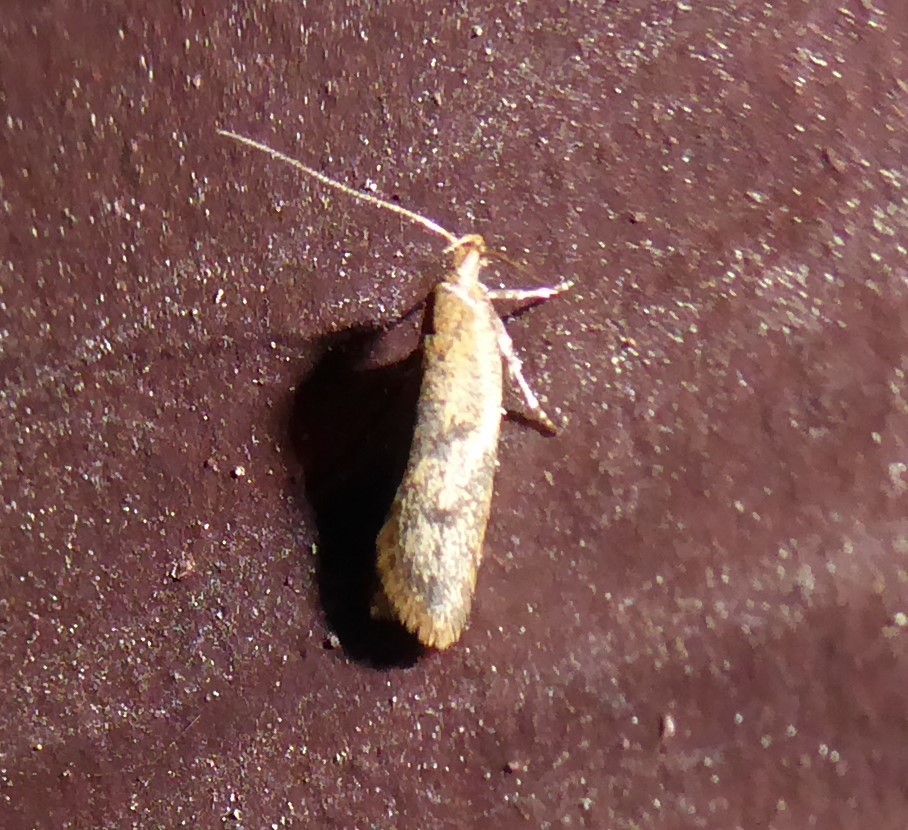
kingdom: Animalia
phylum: Arthropoda
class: Insecta
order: Lepidoptera
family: Oecophoridae
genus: Gymnobathra
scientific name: Gymnobathra tholodella
